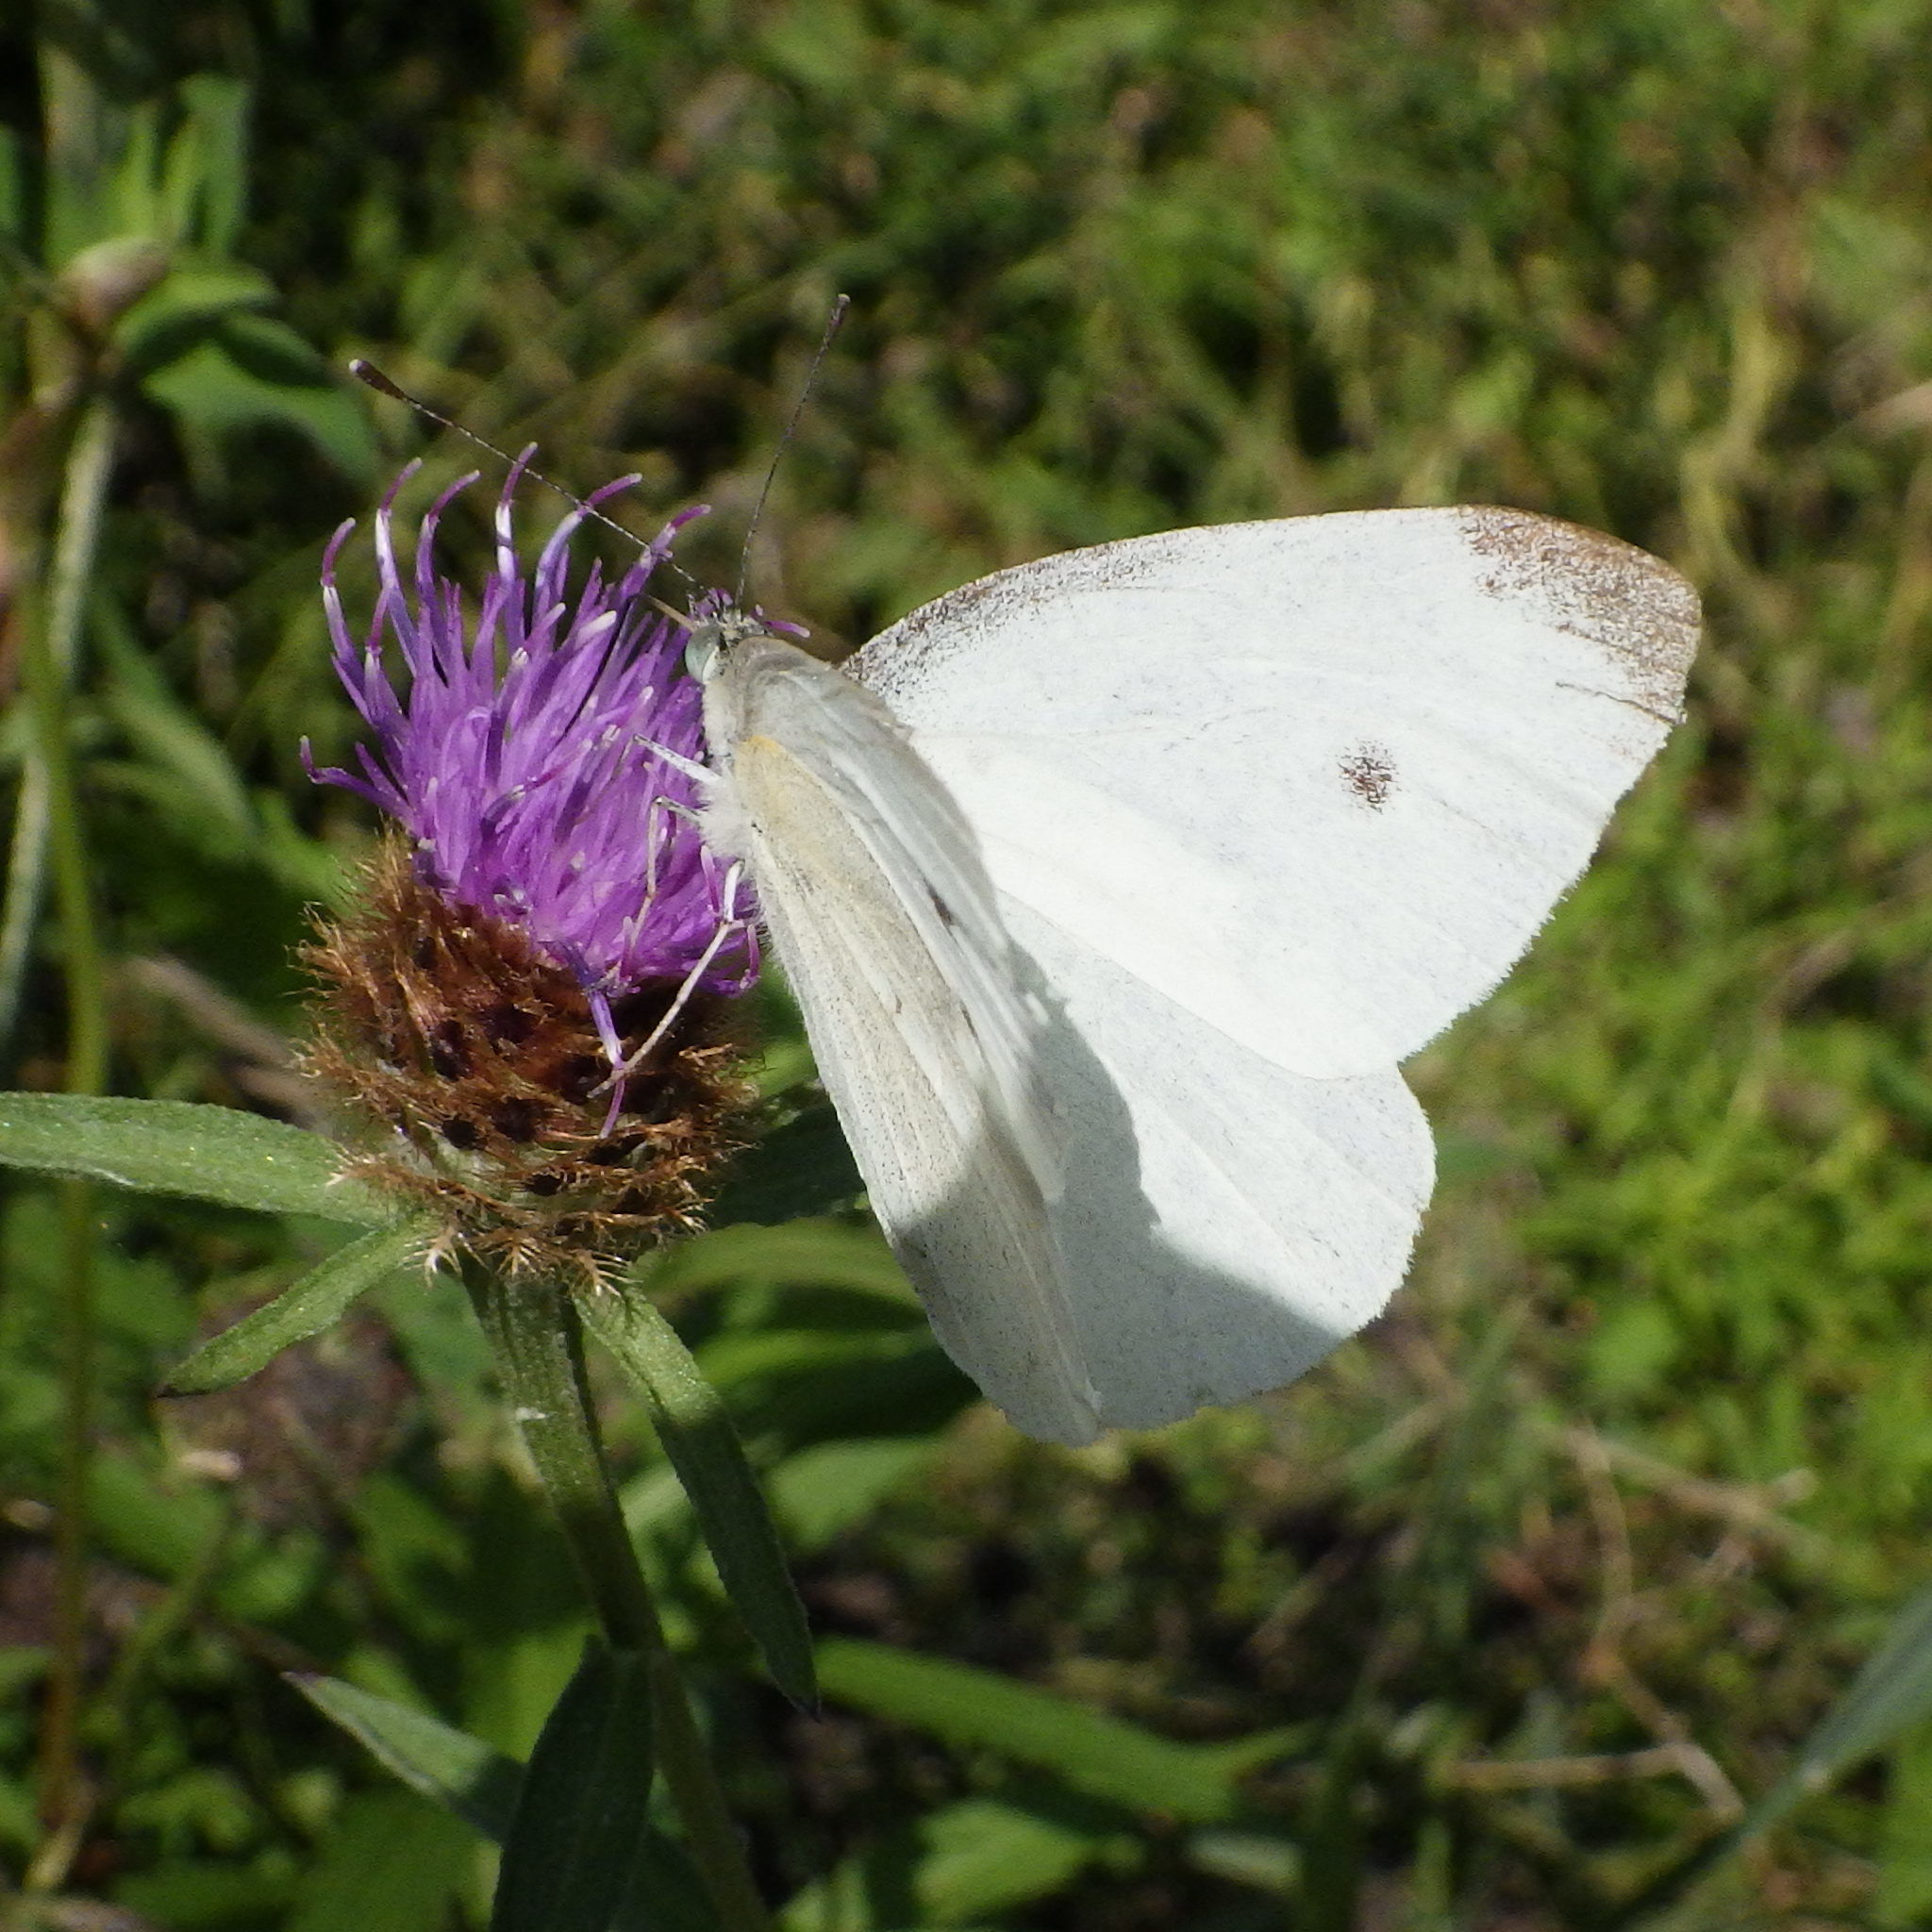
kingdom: Animalia
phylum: Arthropoda
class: Insecta
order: Lepidoptera
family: Pieridae
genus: Pieris
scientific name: Pieris rapae
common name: Small white
